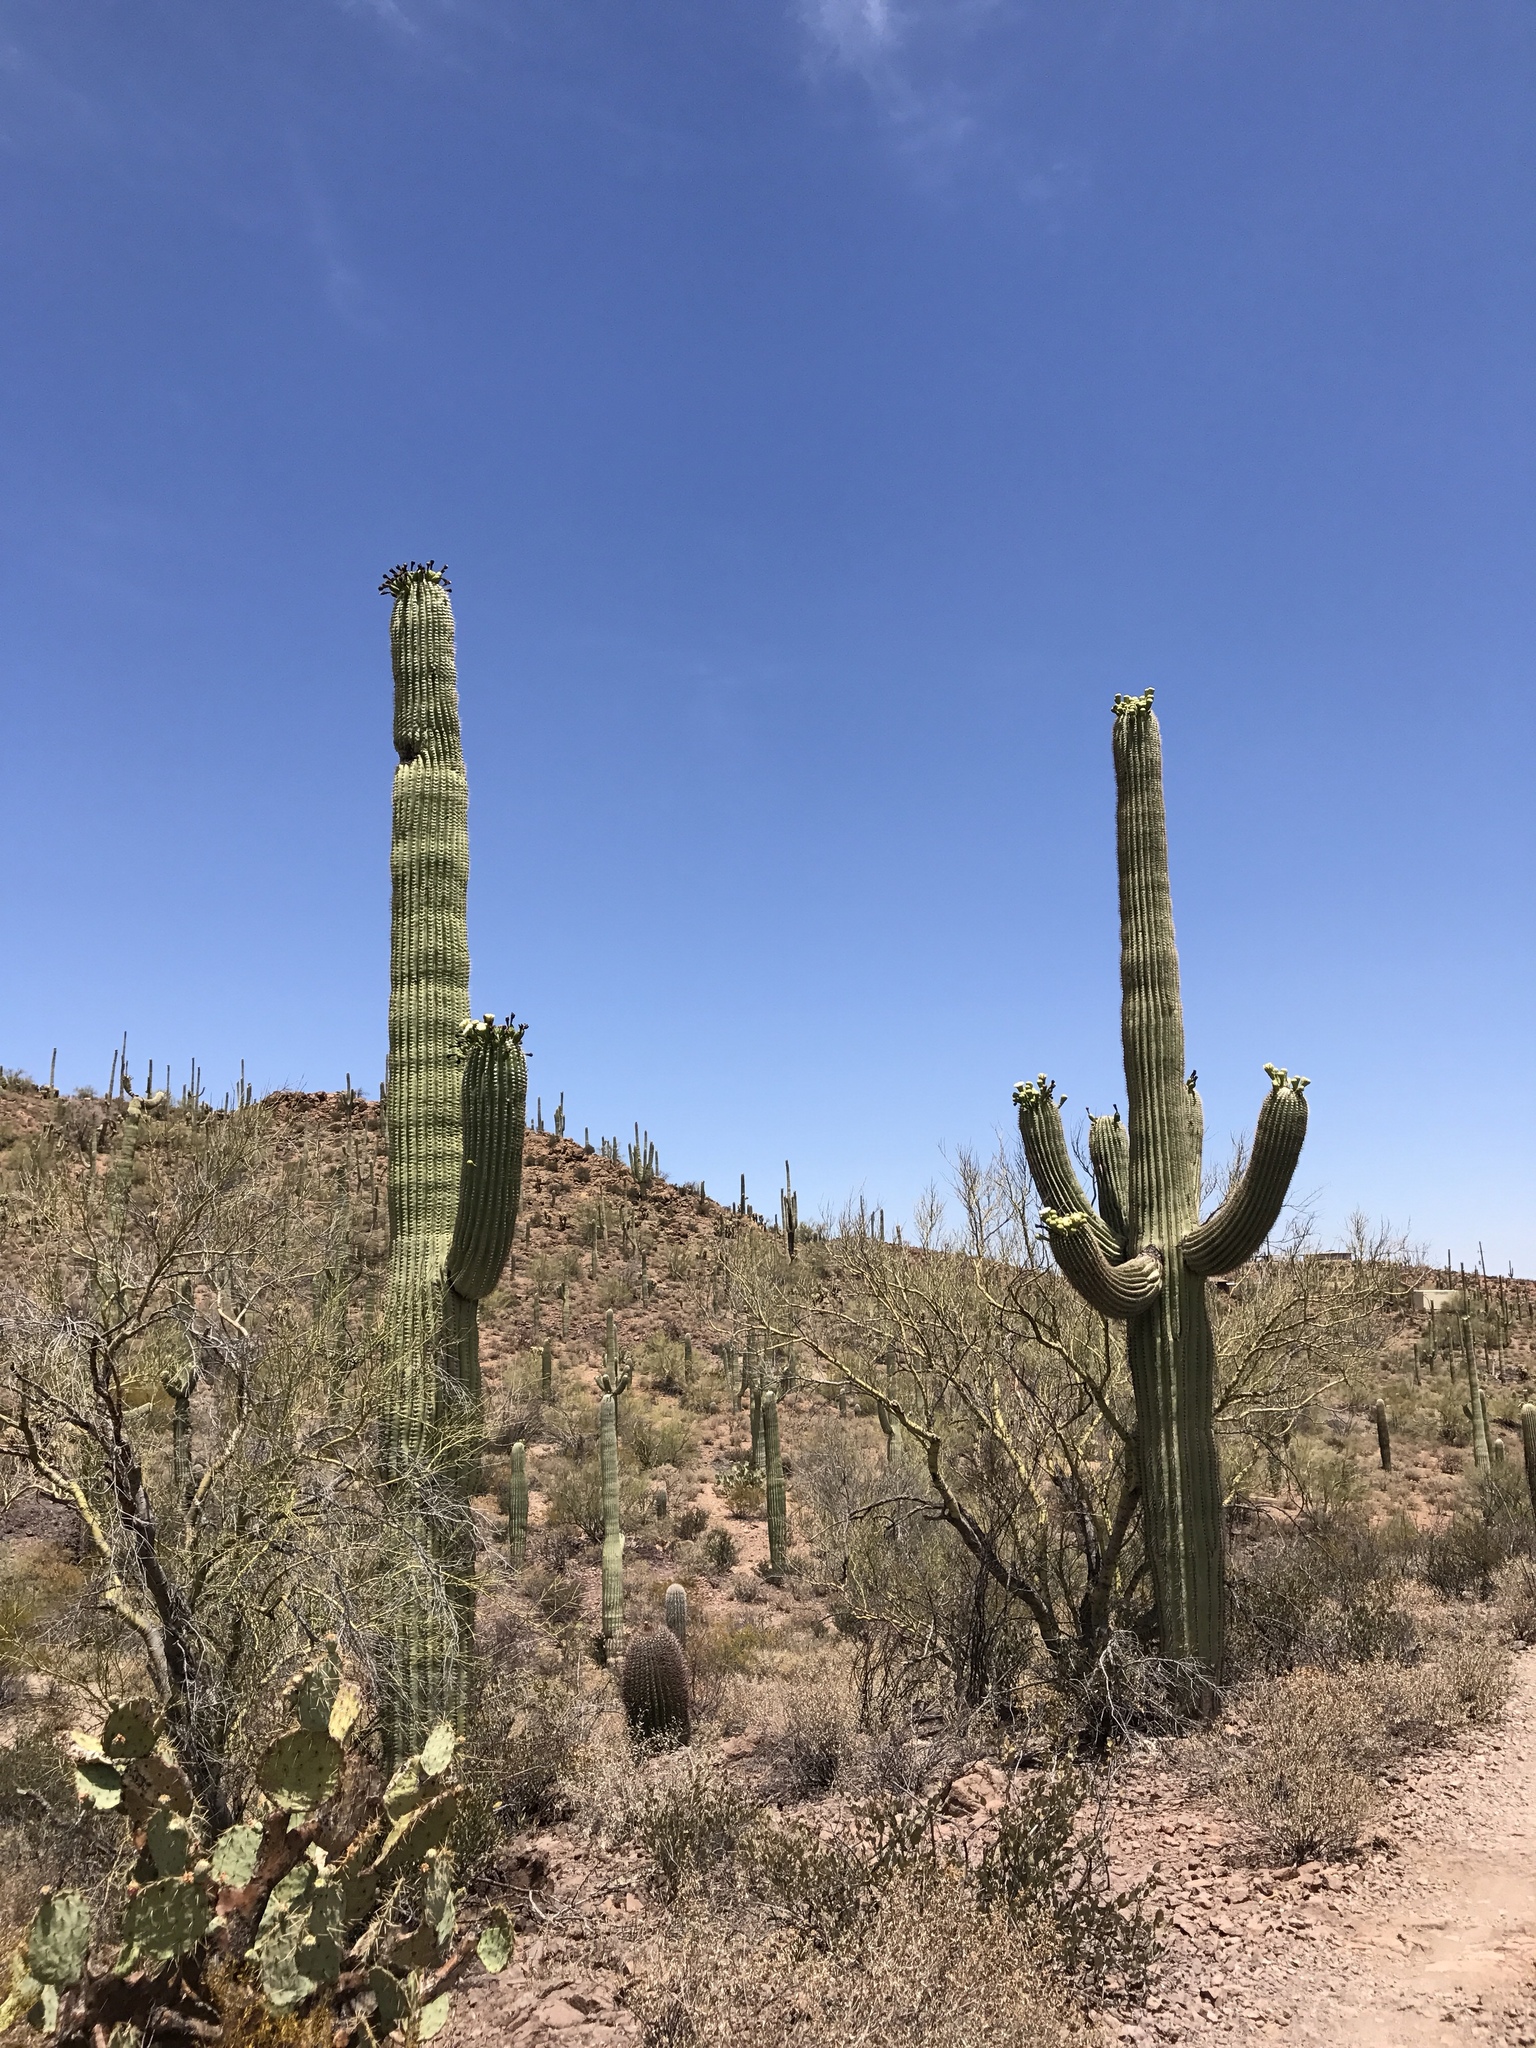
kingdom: Plantae
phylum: Tracheophyta
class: Magnoliopsida
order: Caryophyllales
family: Cactaceae
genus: Carnegiea
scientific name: Carnegiea gigantea
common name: Saguaro
